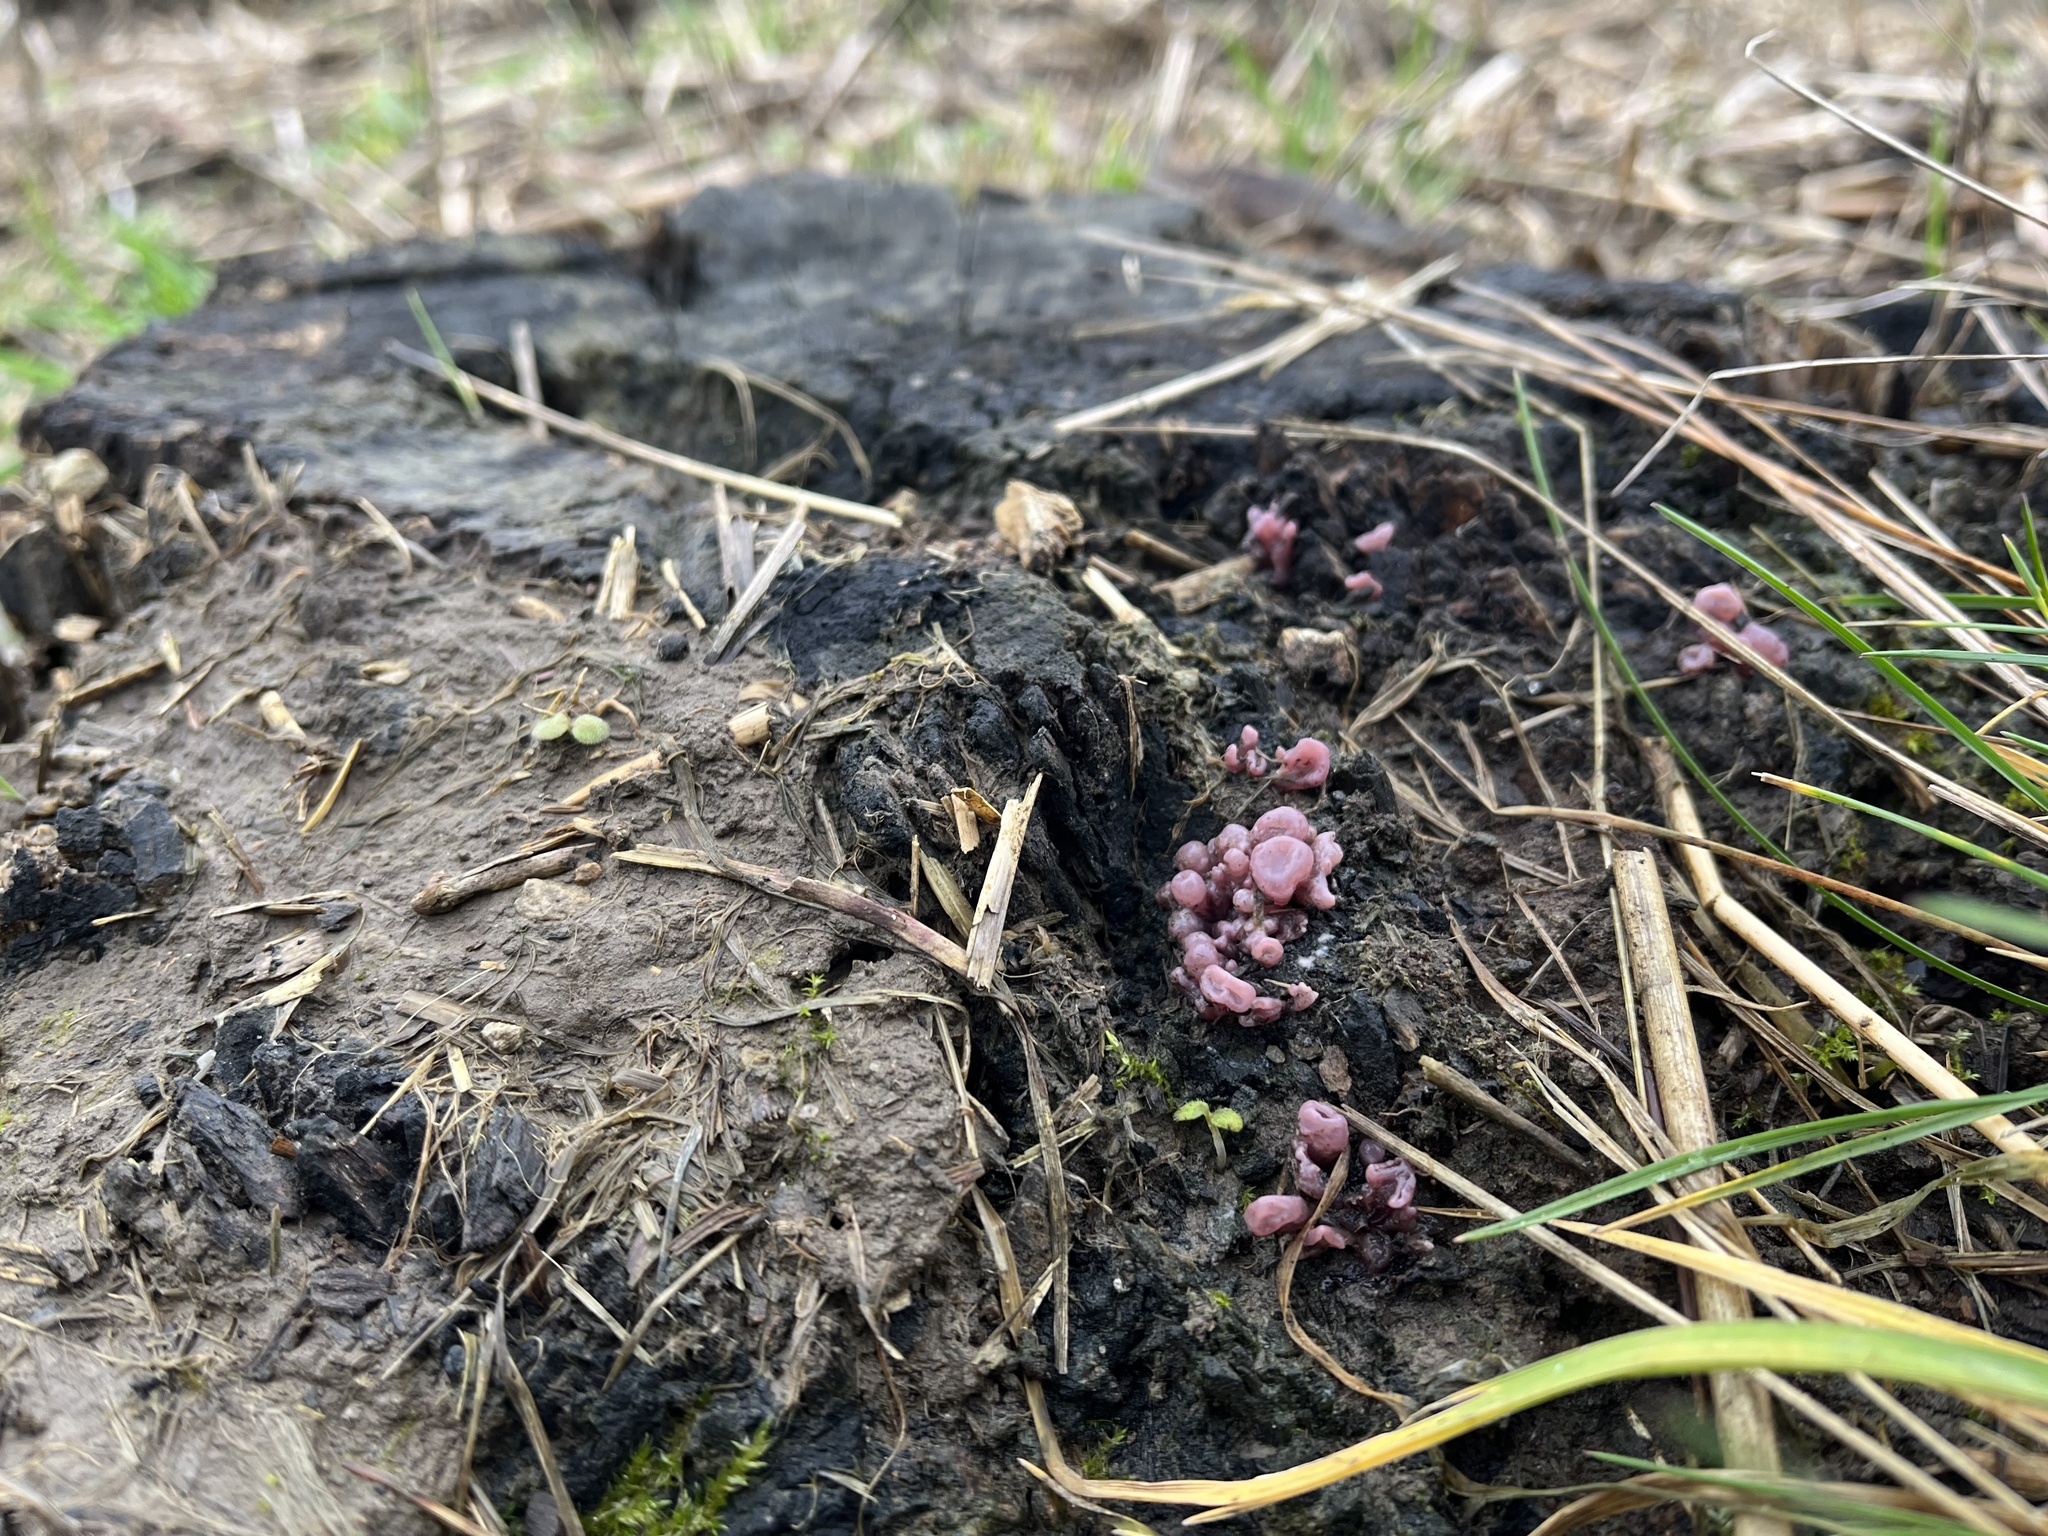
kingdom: Fungi
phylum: Ascomycota
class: Leotiomycetes
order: Helotiales
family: Gelatinodiscaceae
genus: Ascocoryne
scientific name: Ascocoryne sarcoides
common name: Purple jellydisc
